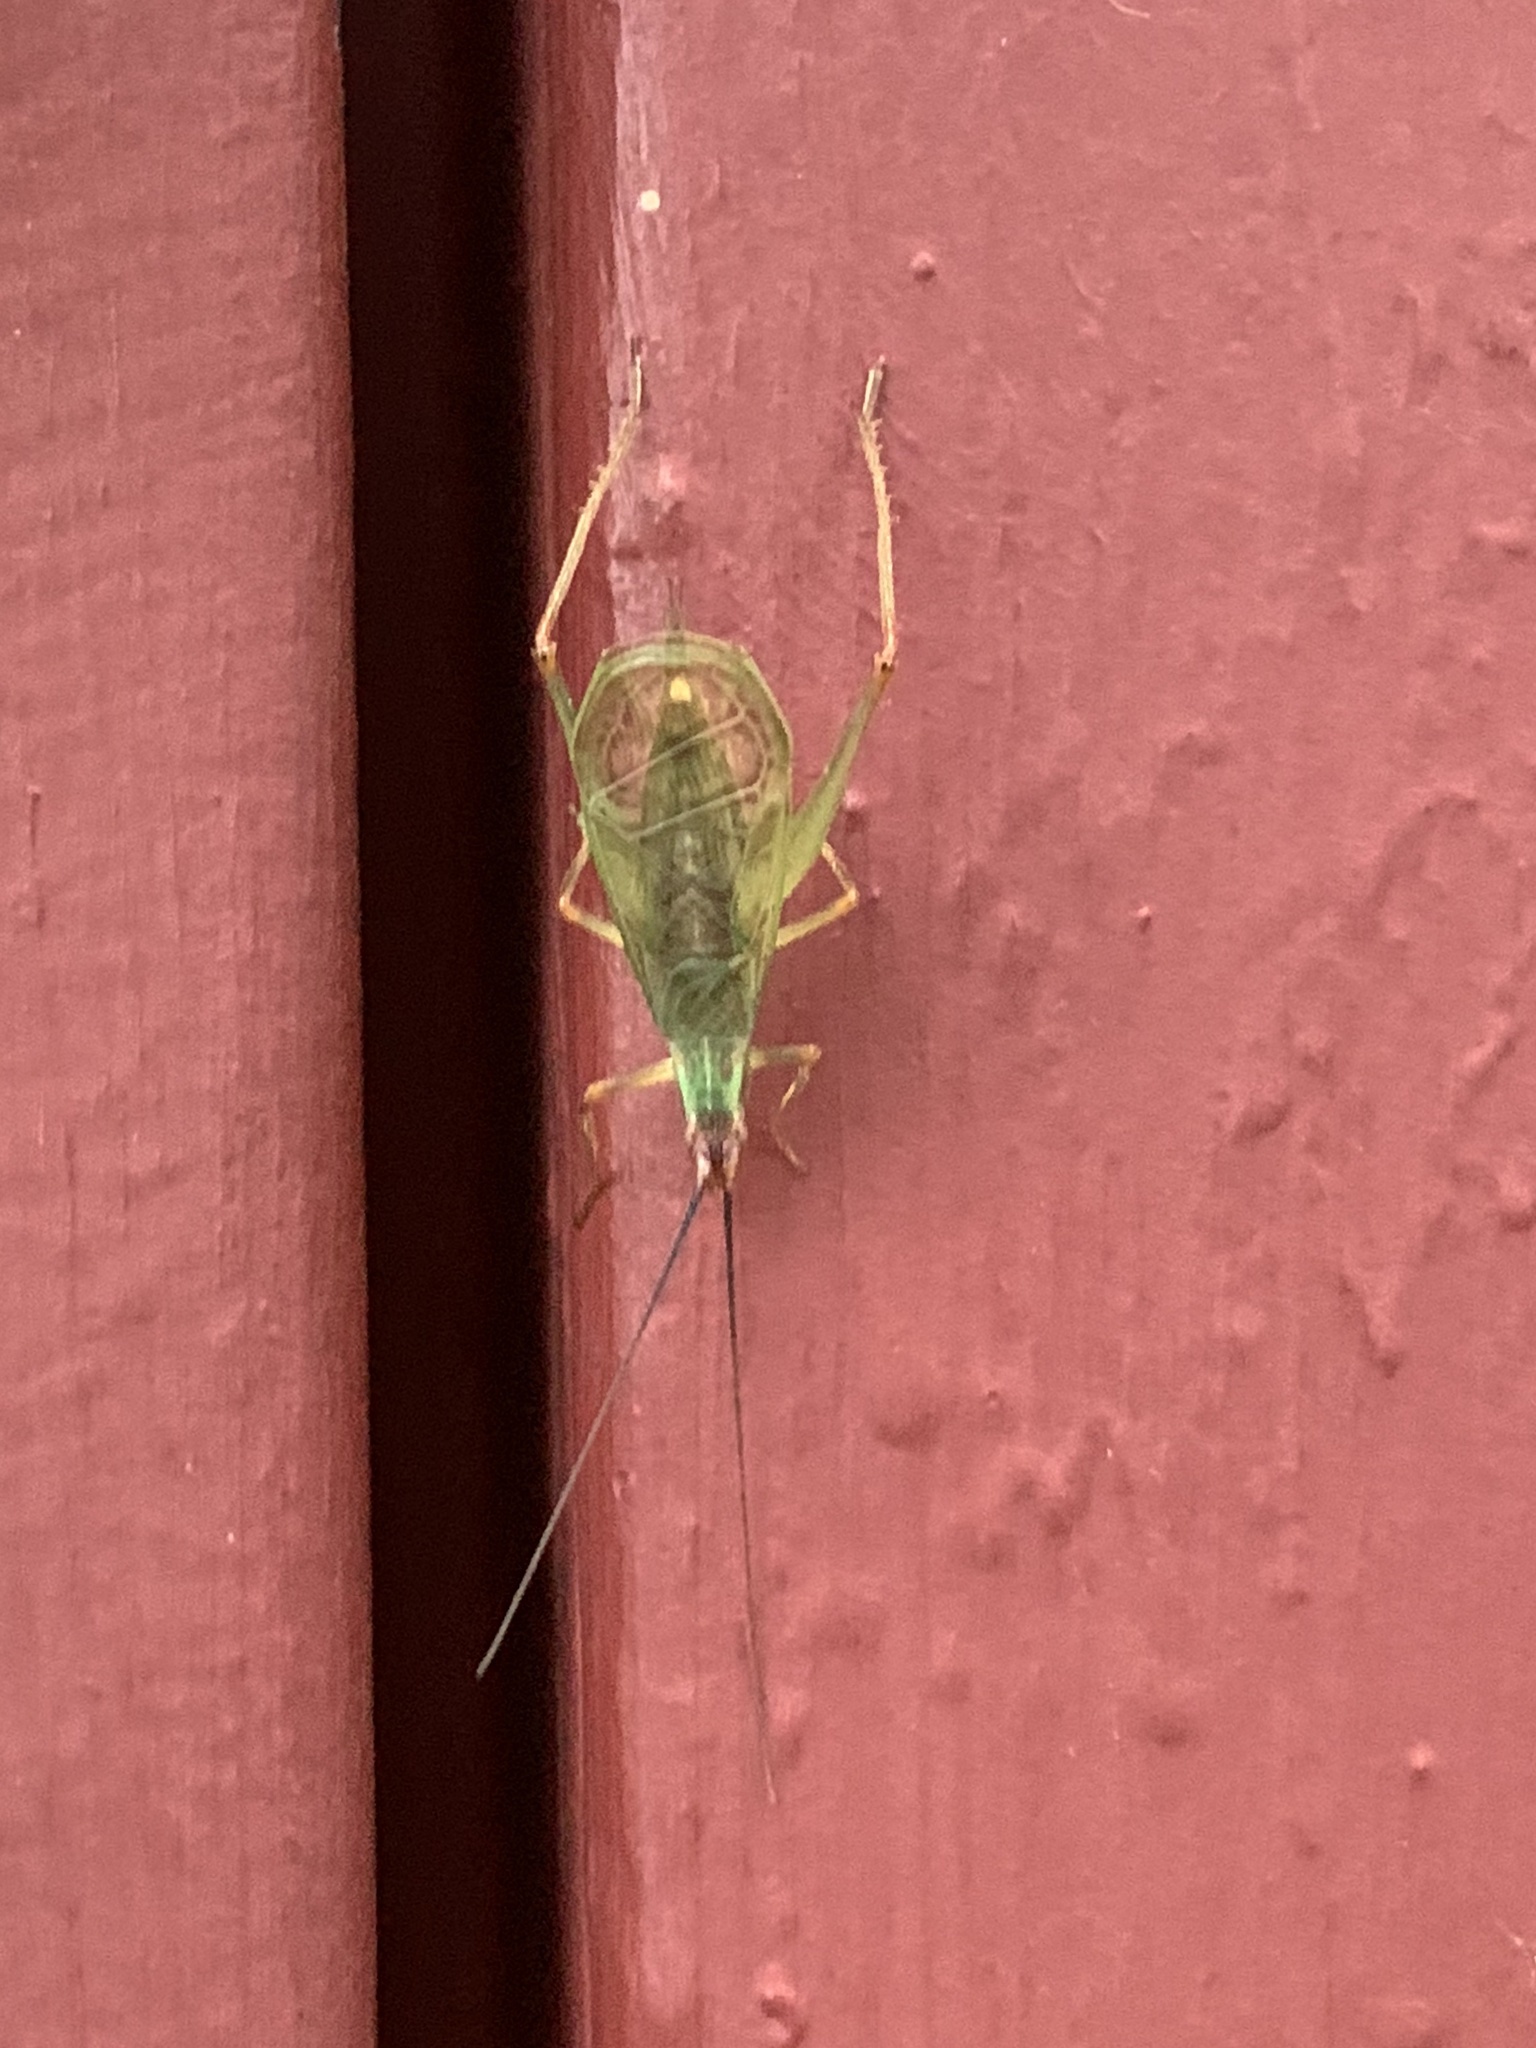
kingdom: Animalia
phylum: Arthropoda
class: Insecta
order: Orthoptera
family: Gryllidae
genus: Oecanthus
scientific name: Oecanthus californicus
